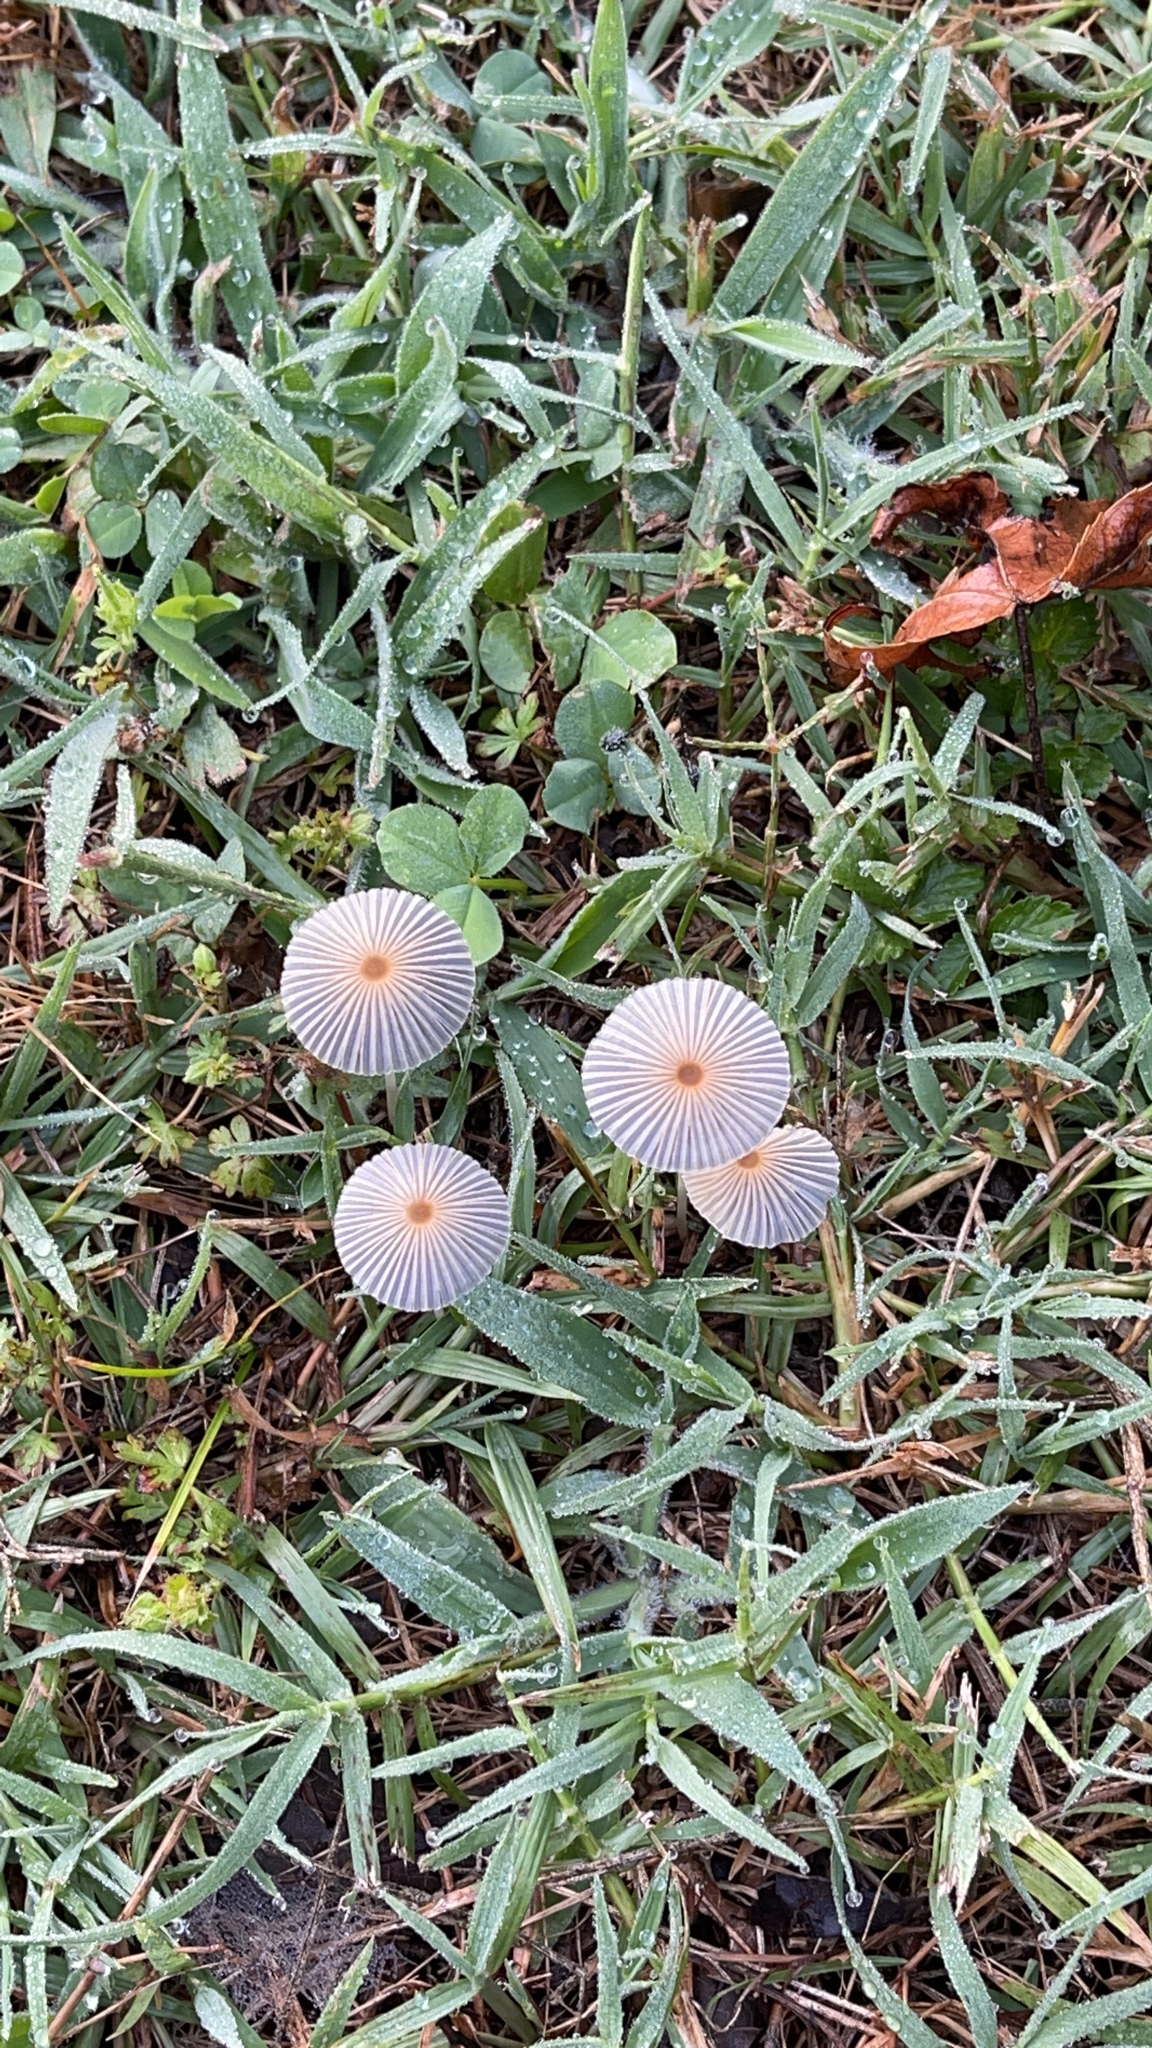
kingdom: Fungi
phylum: Basidiomycota
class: Agaricomycetes
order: Agaricales
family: Psathyrellaceae
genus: Parasola
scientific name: Parasola plicatilis
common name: Pleated inkcap
